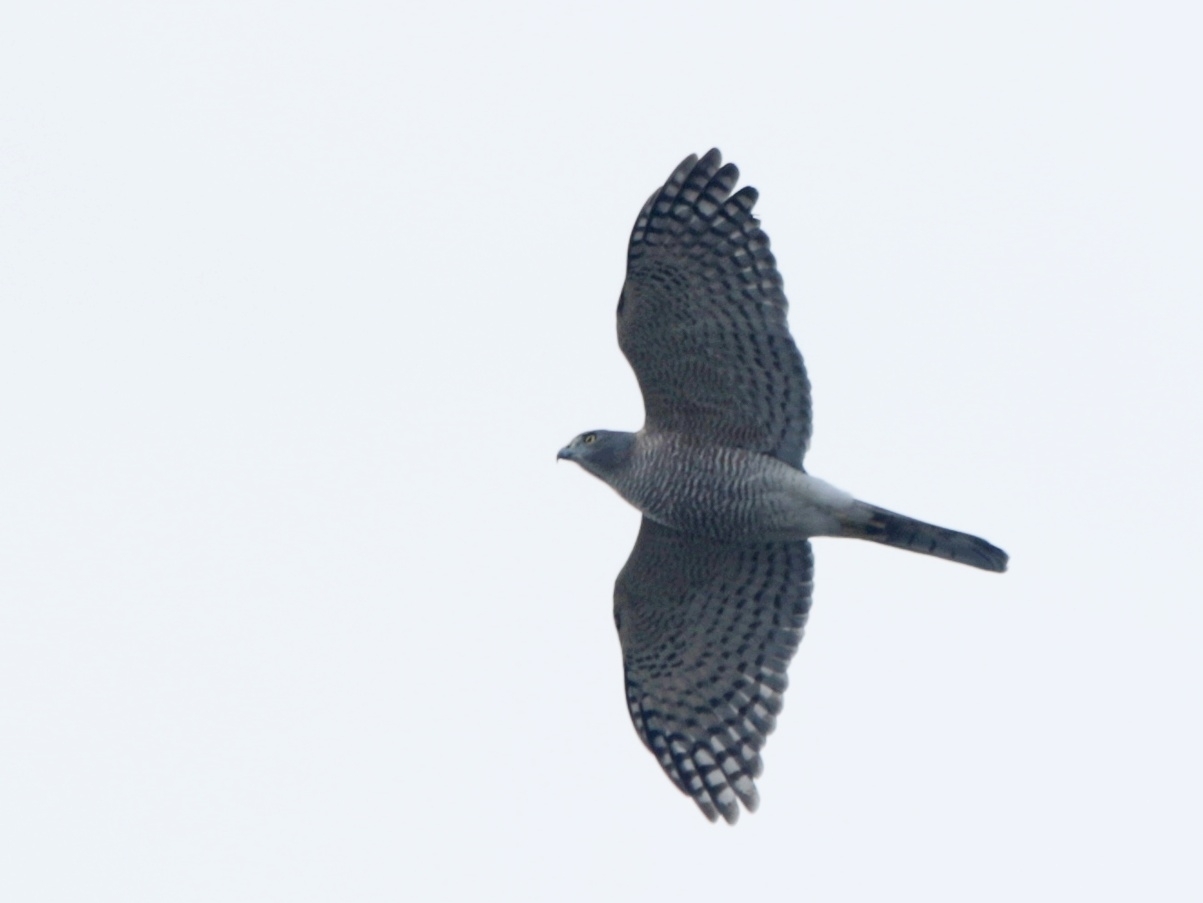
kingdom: Animalia
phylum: Chordata
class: Aves
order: Accipitriformes
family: Accipitridae
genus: Accipiter
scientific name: Accipiter badius
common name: Shikra
